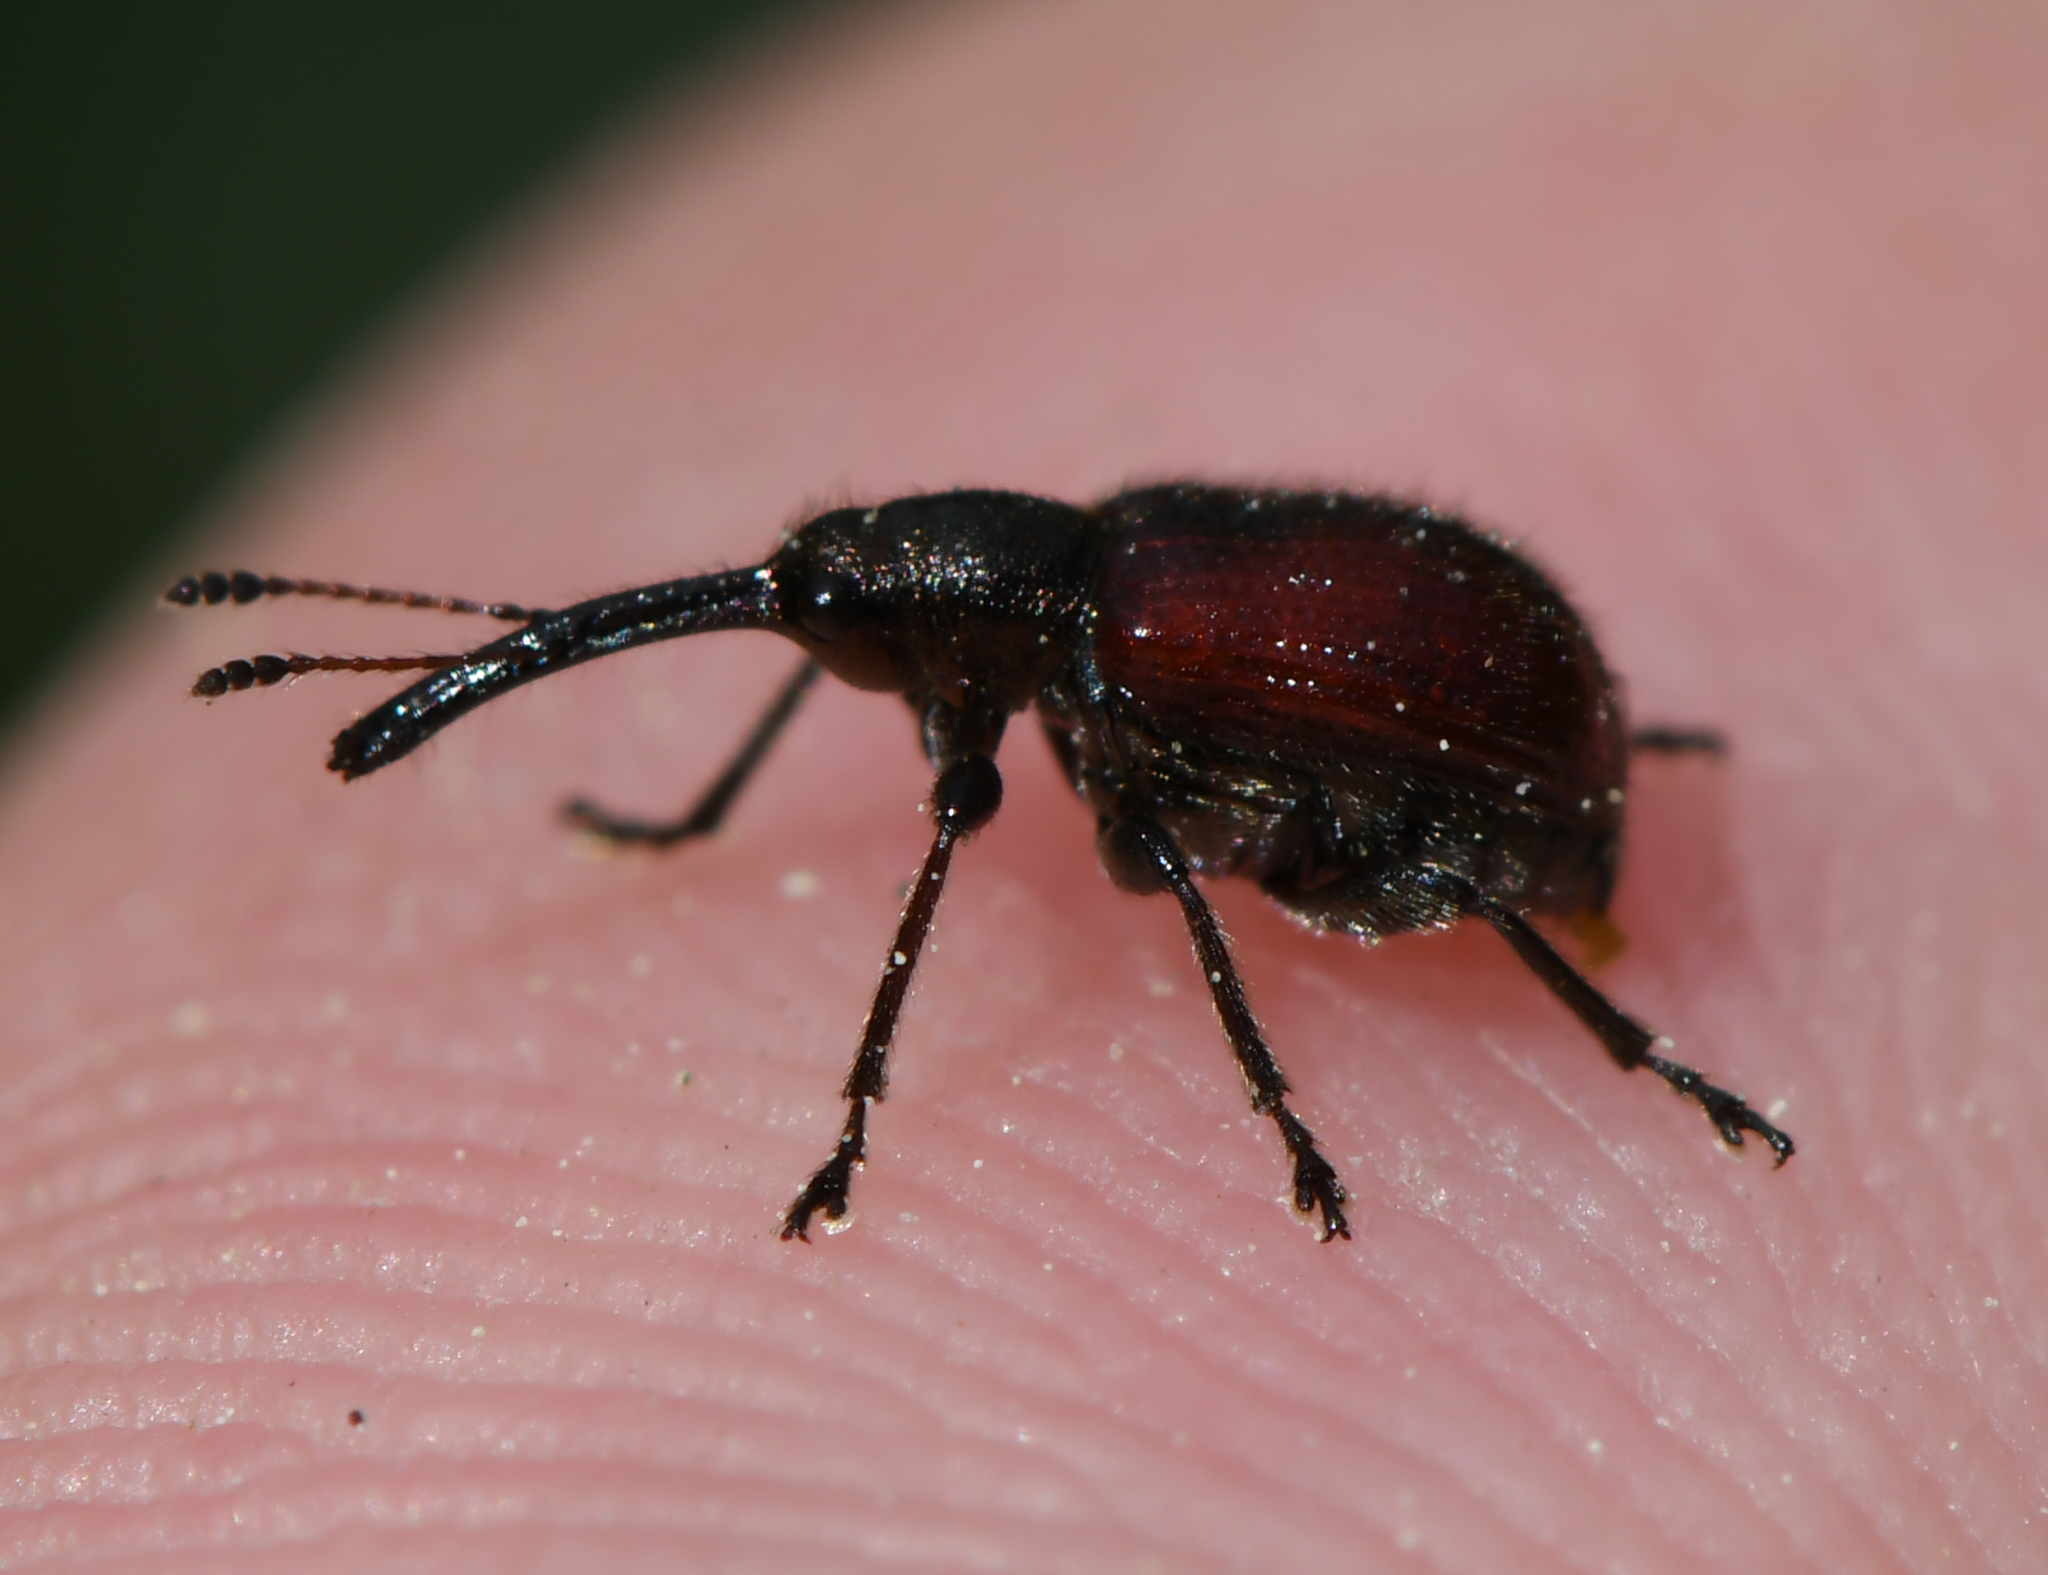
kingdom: Animalia
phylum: Arthropoda
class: Insecta
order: Coleoptera
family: Rhynchitidae
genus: Tatianaerhynchites
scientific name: Tatianaerhynchites aequatus
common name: Apple fruit rhynchites
